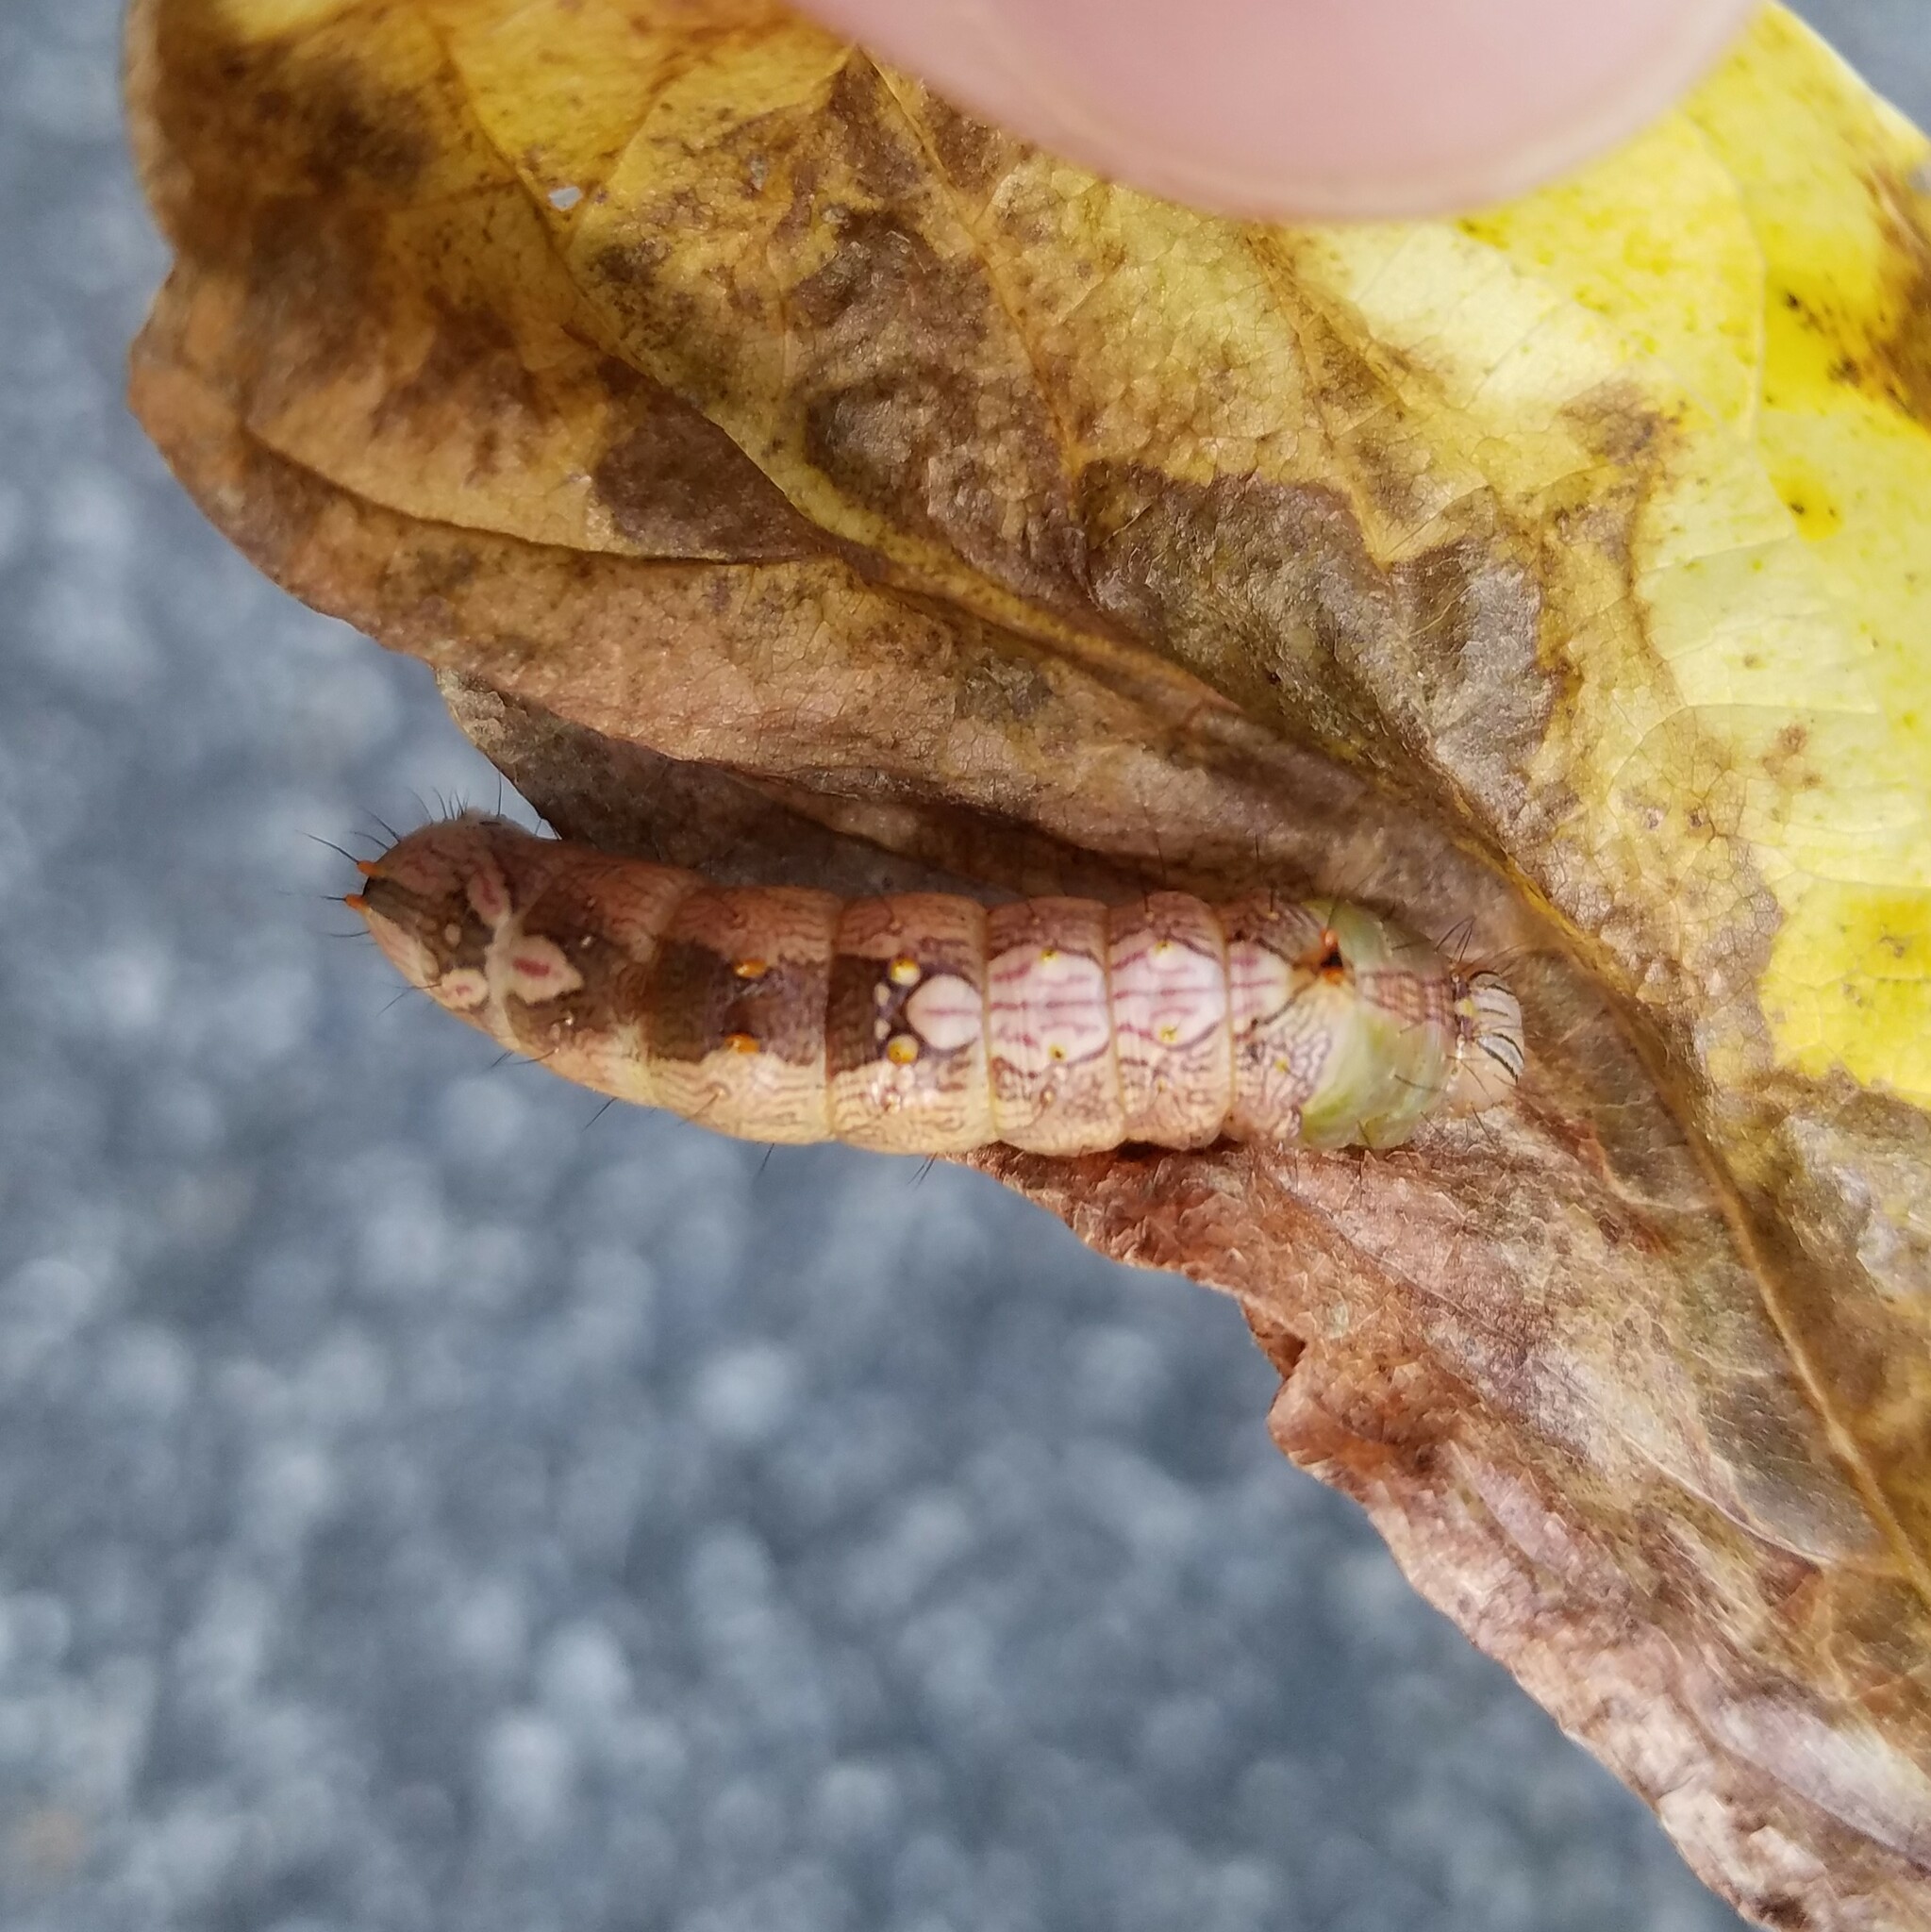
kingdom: Animalia
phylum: Arthropoda
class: Insecta
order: Lepidoptera
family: Notodontidae
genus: Schizura
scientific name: Schizura ipomaeae
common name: Morning-glory prominent
